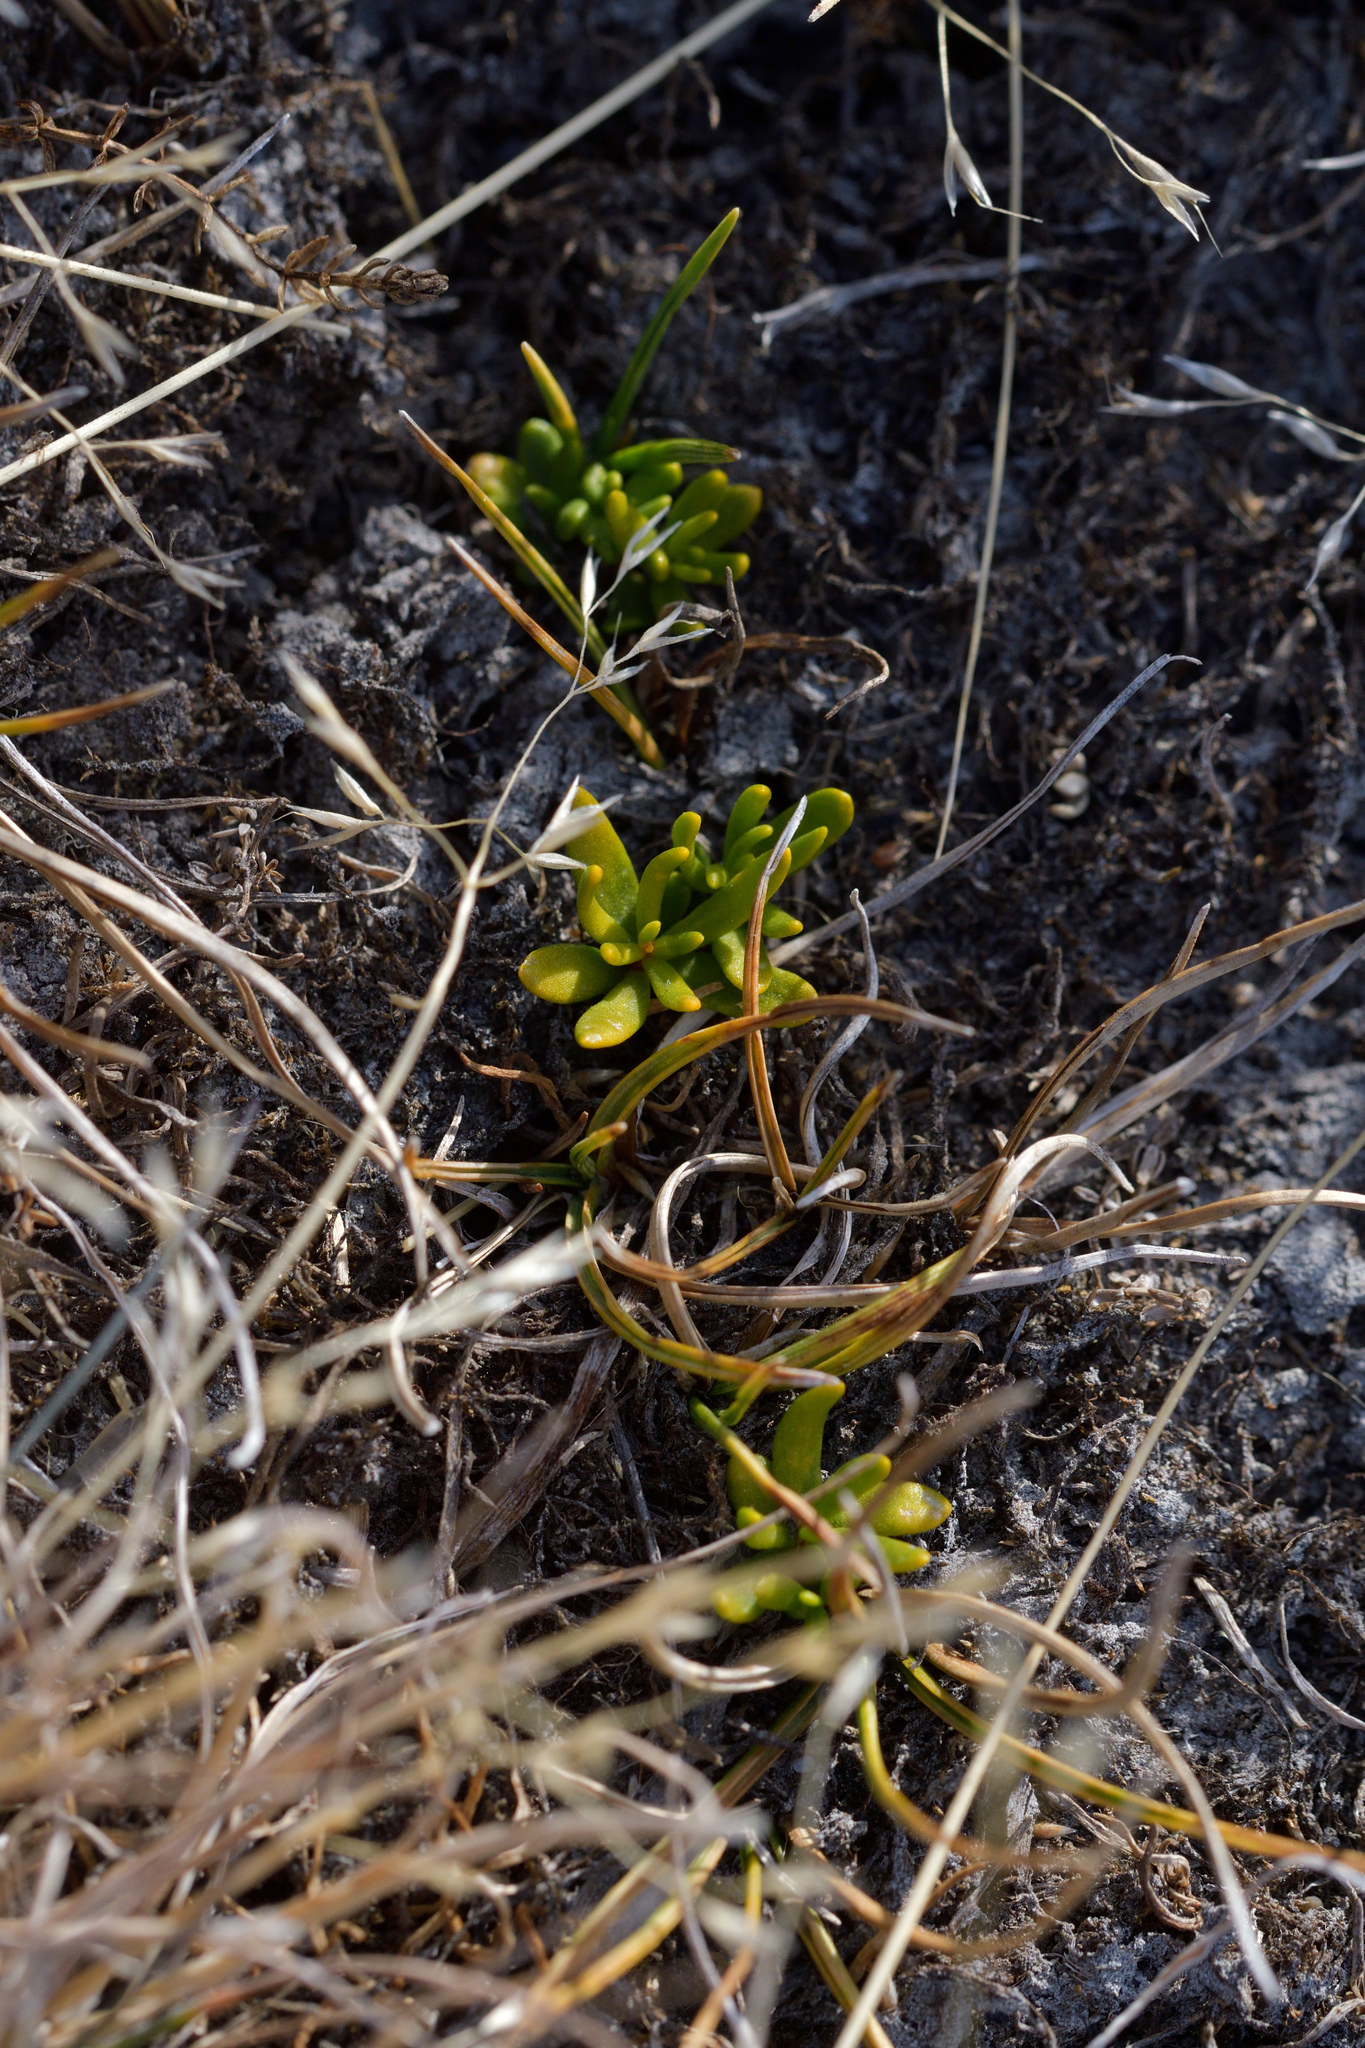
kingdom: Plantae
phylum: Tracheophyta
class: Magnoliopsida
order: Celastrales
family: Celastraceae
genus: Stackhousia
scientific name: Stackhousia minima
